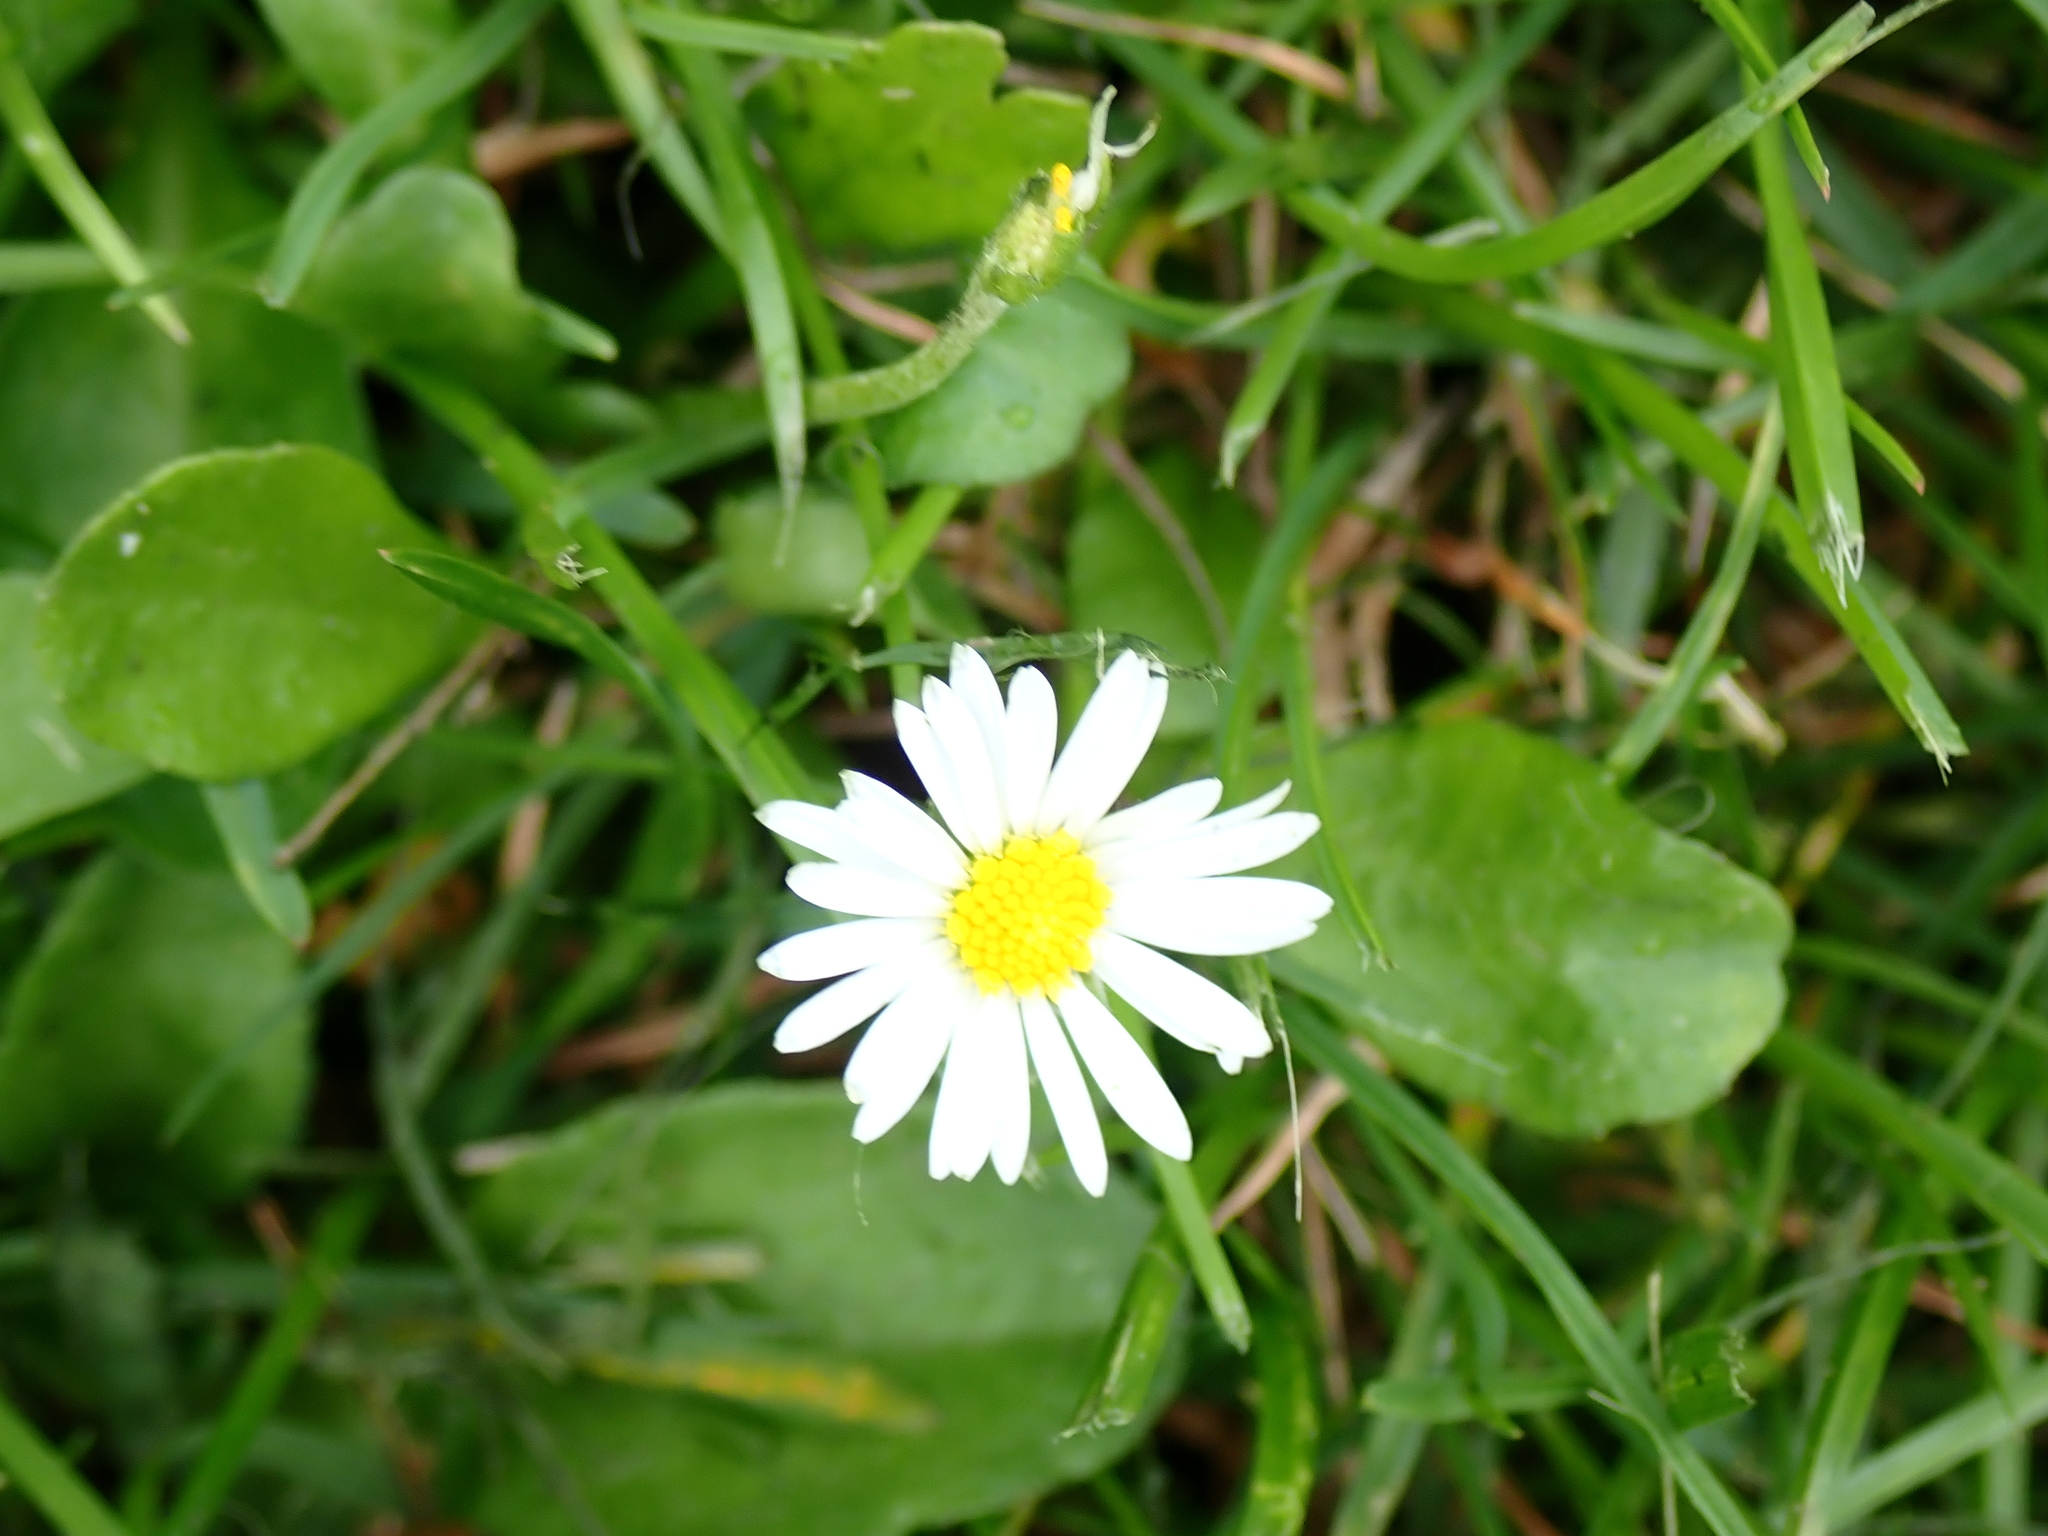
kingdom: Plantae
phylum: Tracheophyta
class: Magnoliopsida
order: Asterales
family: Asteraceae
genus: Bellis
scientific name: Bellis perennis
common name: Lawndaisy
